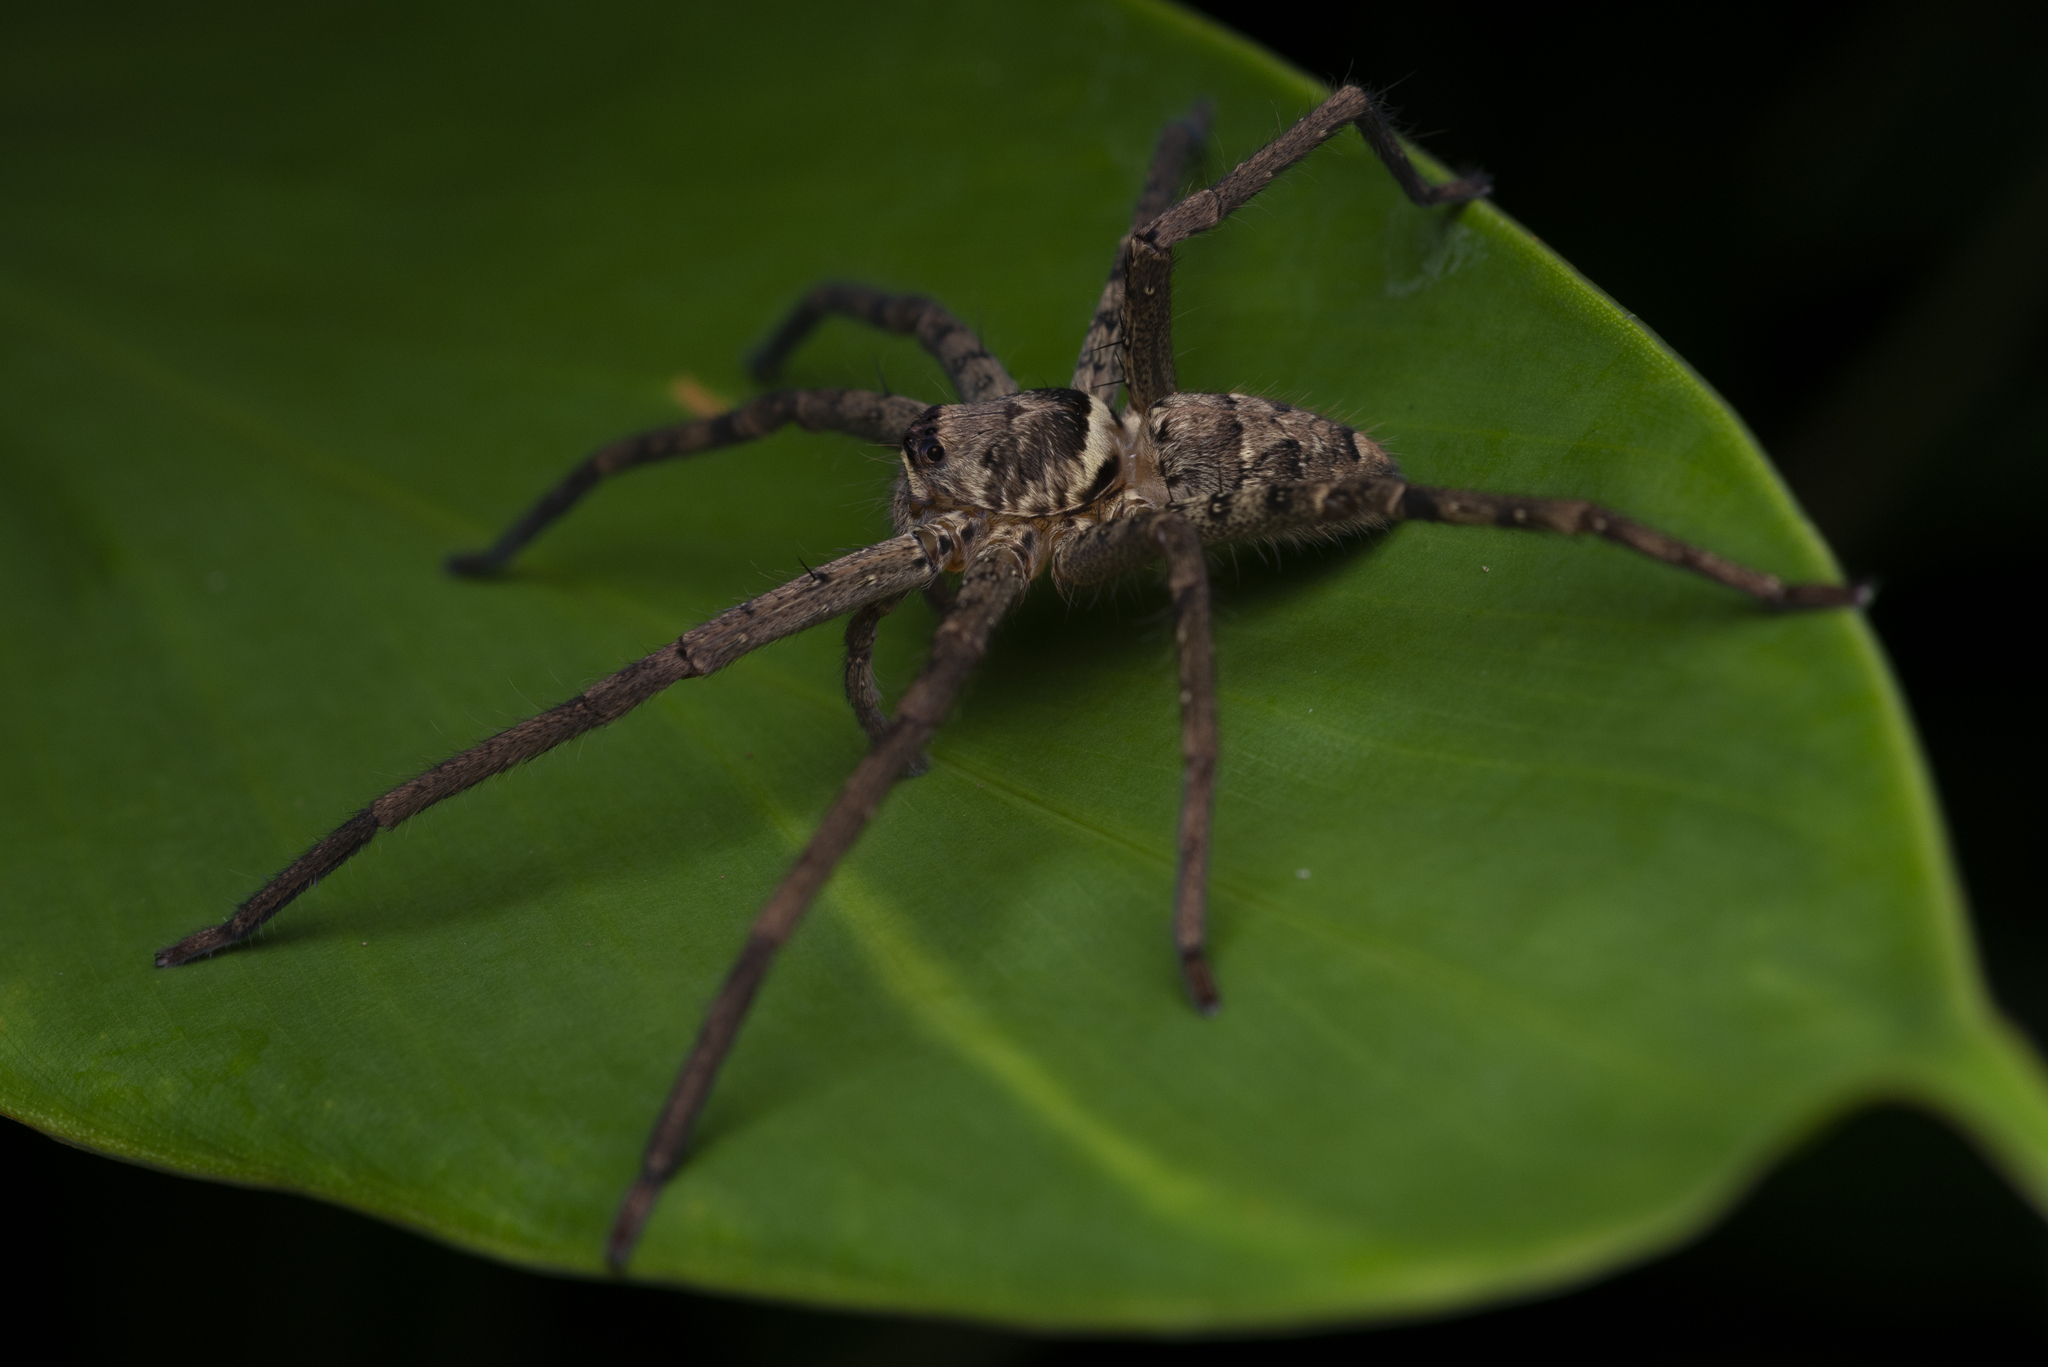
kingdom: Animalia
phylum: Arthropoda
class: Arachnida
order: Araneae
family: Sparassidae
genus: Heteropoda
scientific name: Heteropoda venatoria
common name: Huntsman spider
